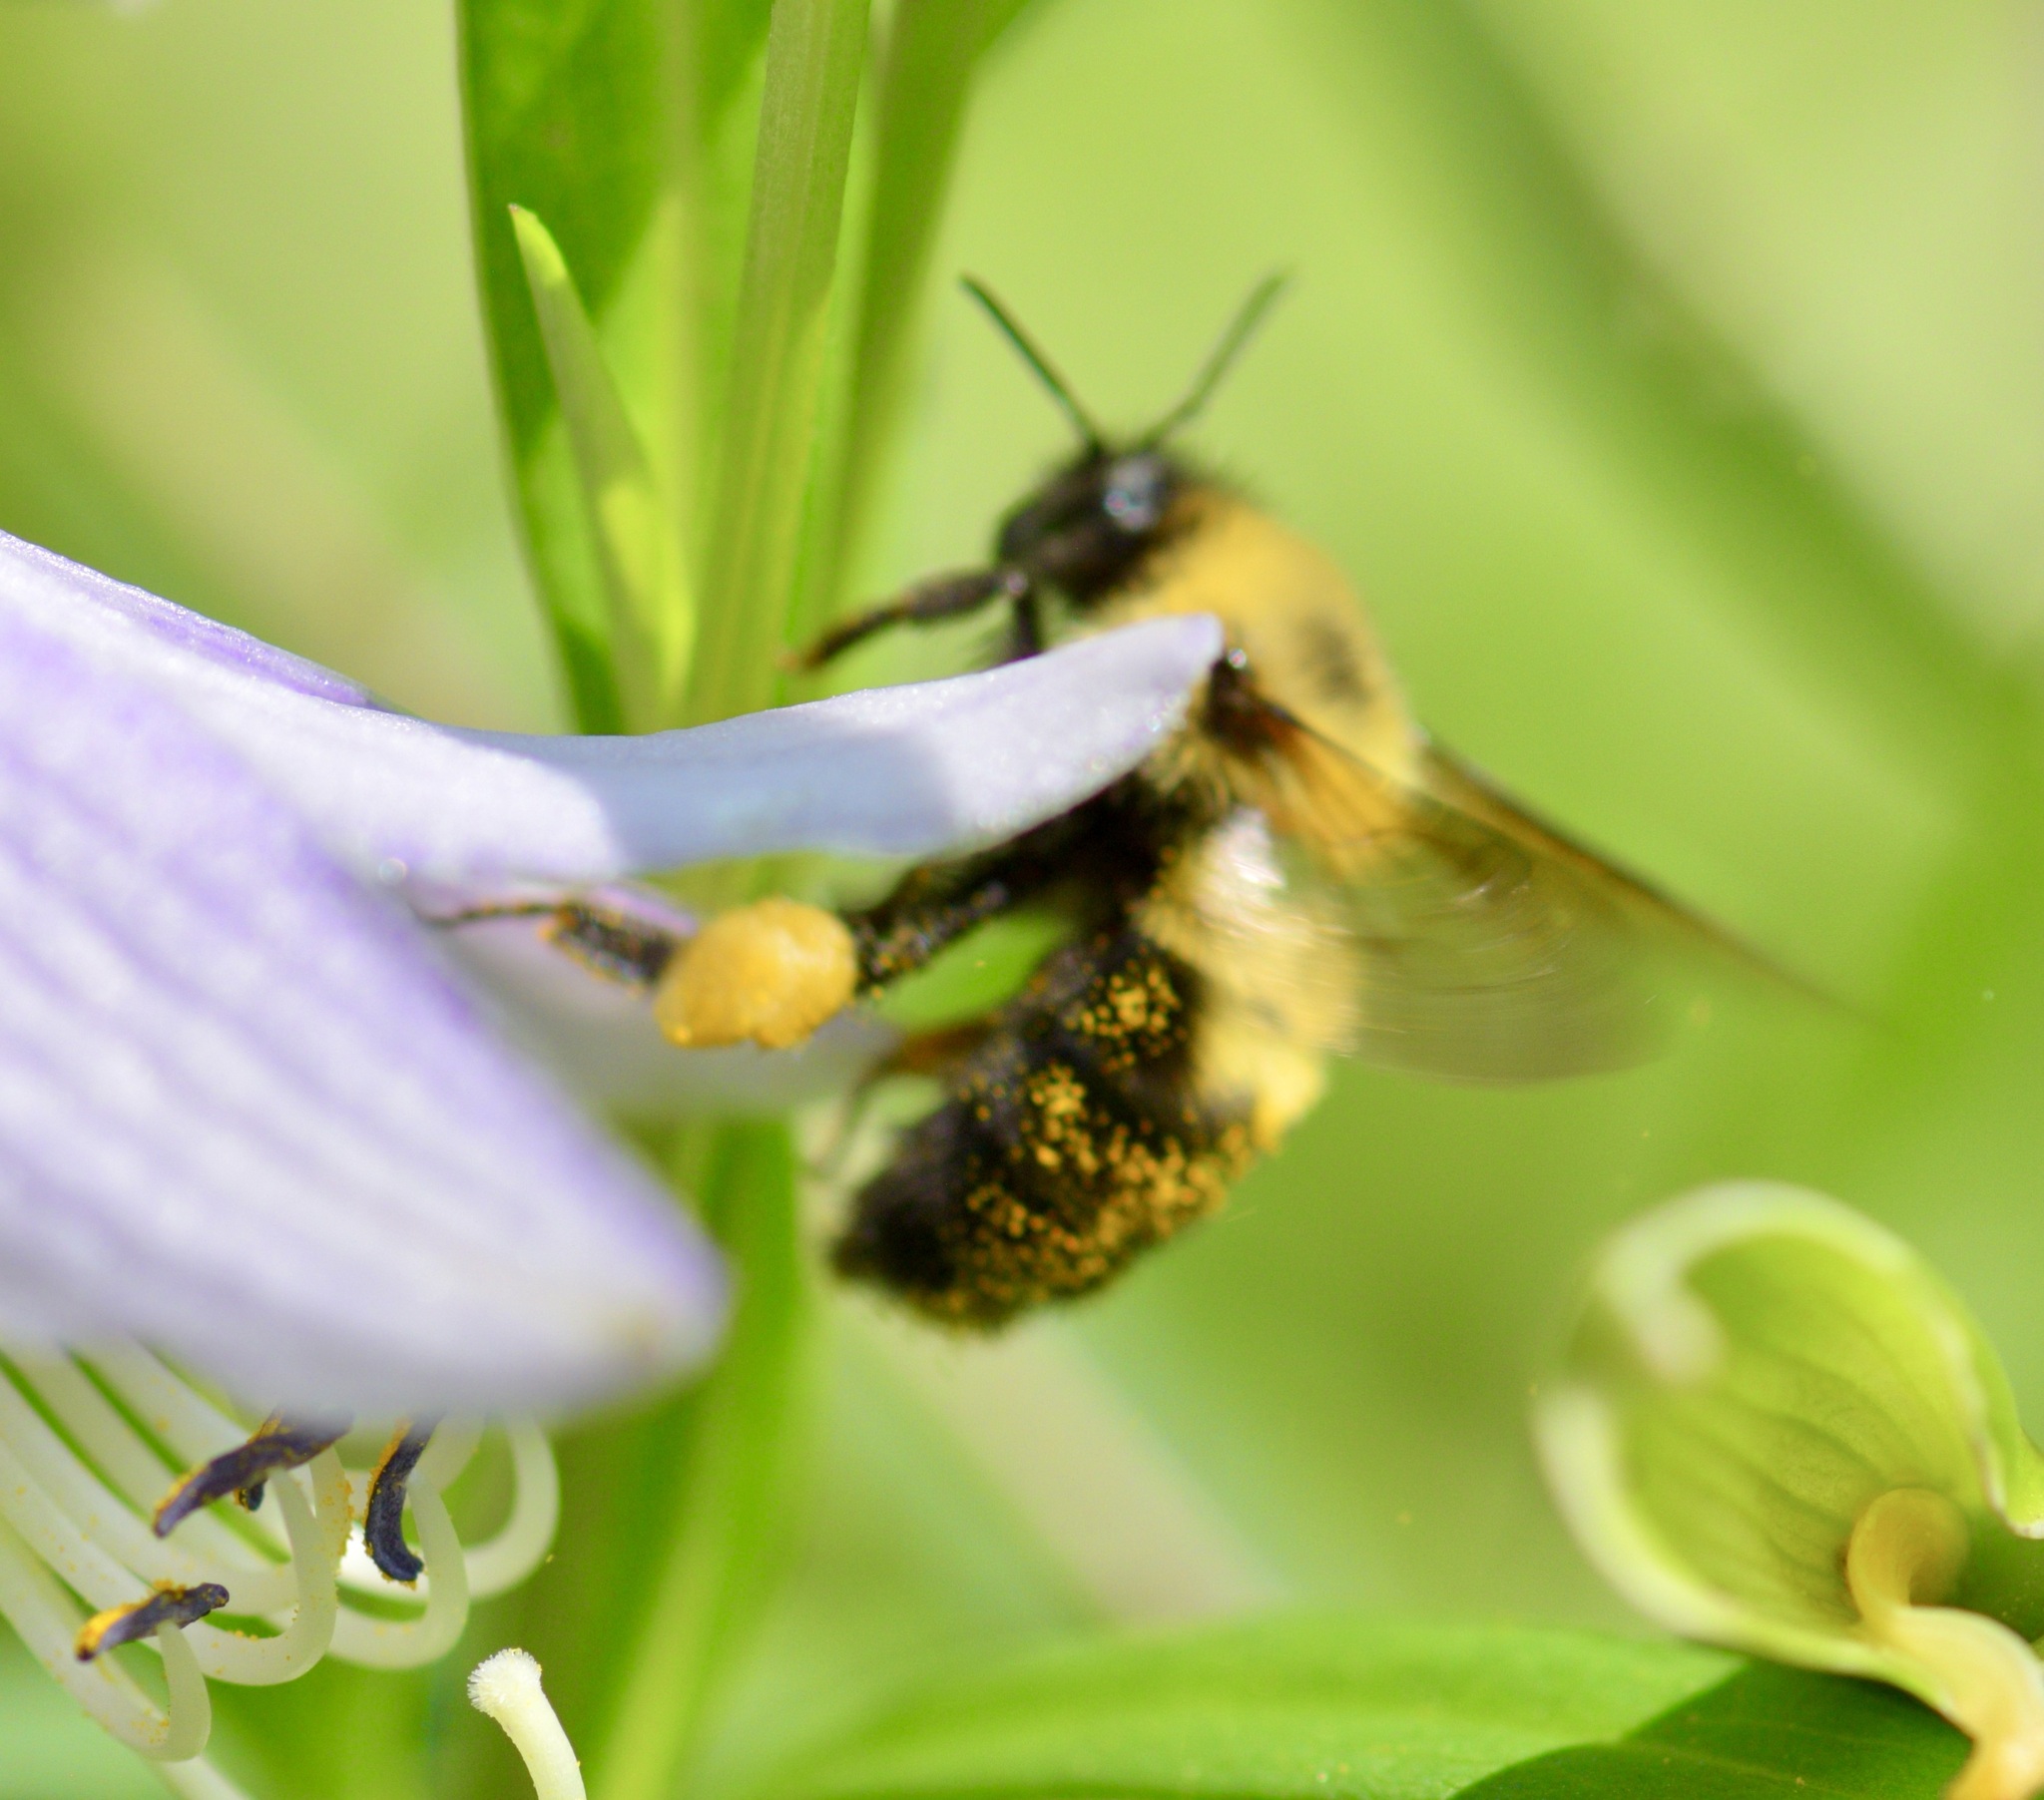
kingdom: Animalia
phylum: Arthropoda
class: Insecta
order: Hymenoptera
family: Apidae
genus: Bombus
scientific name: Bombus bimaculatus
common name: Two-spotted bumble bee
